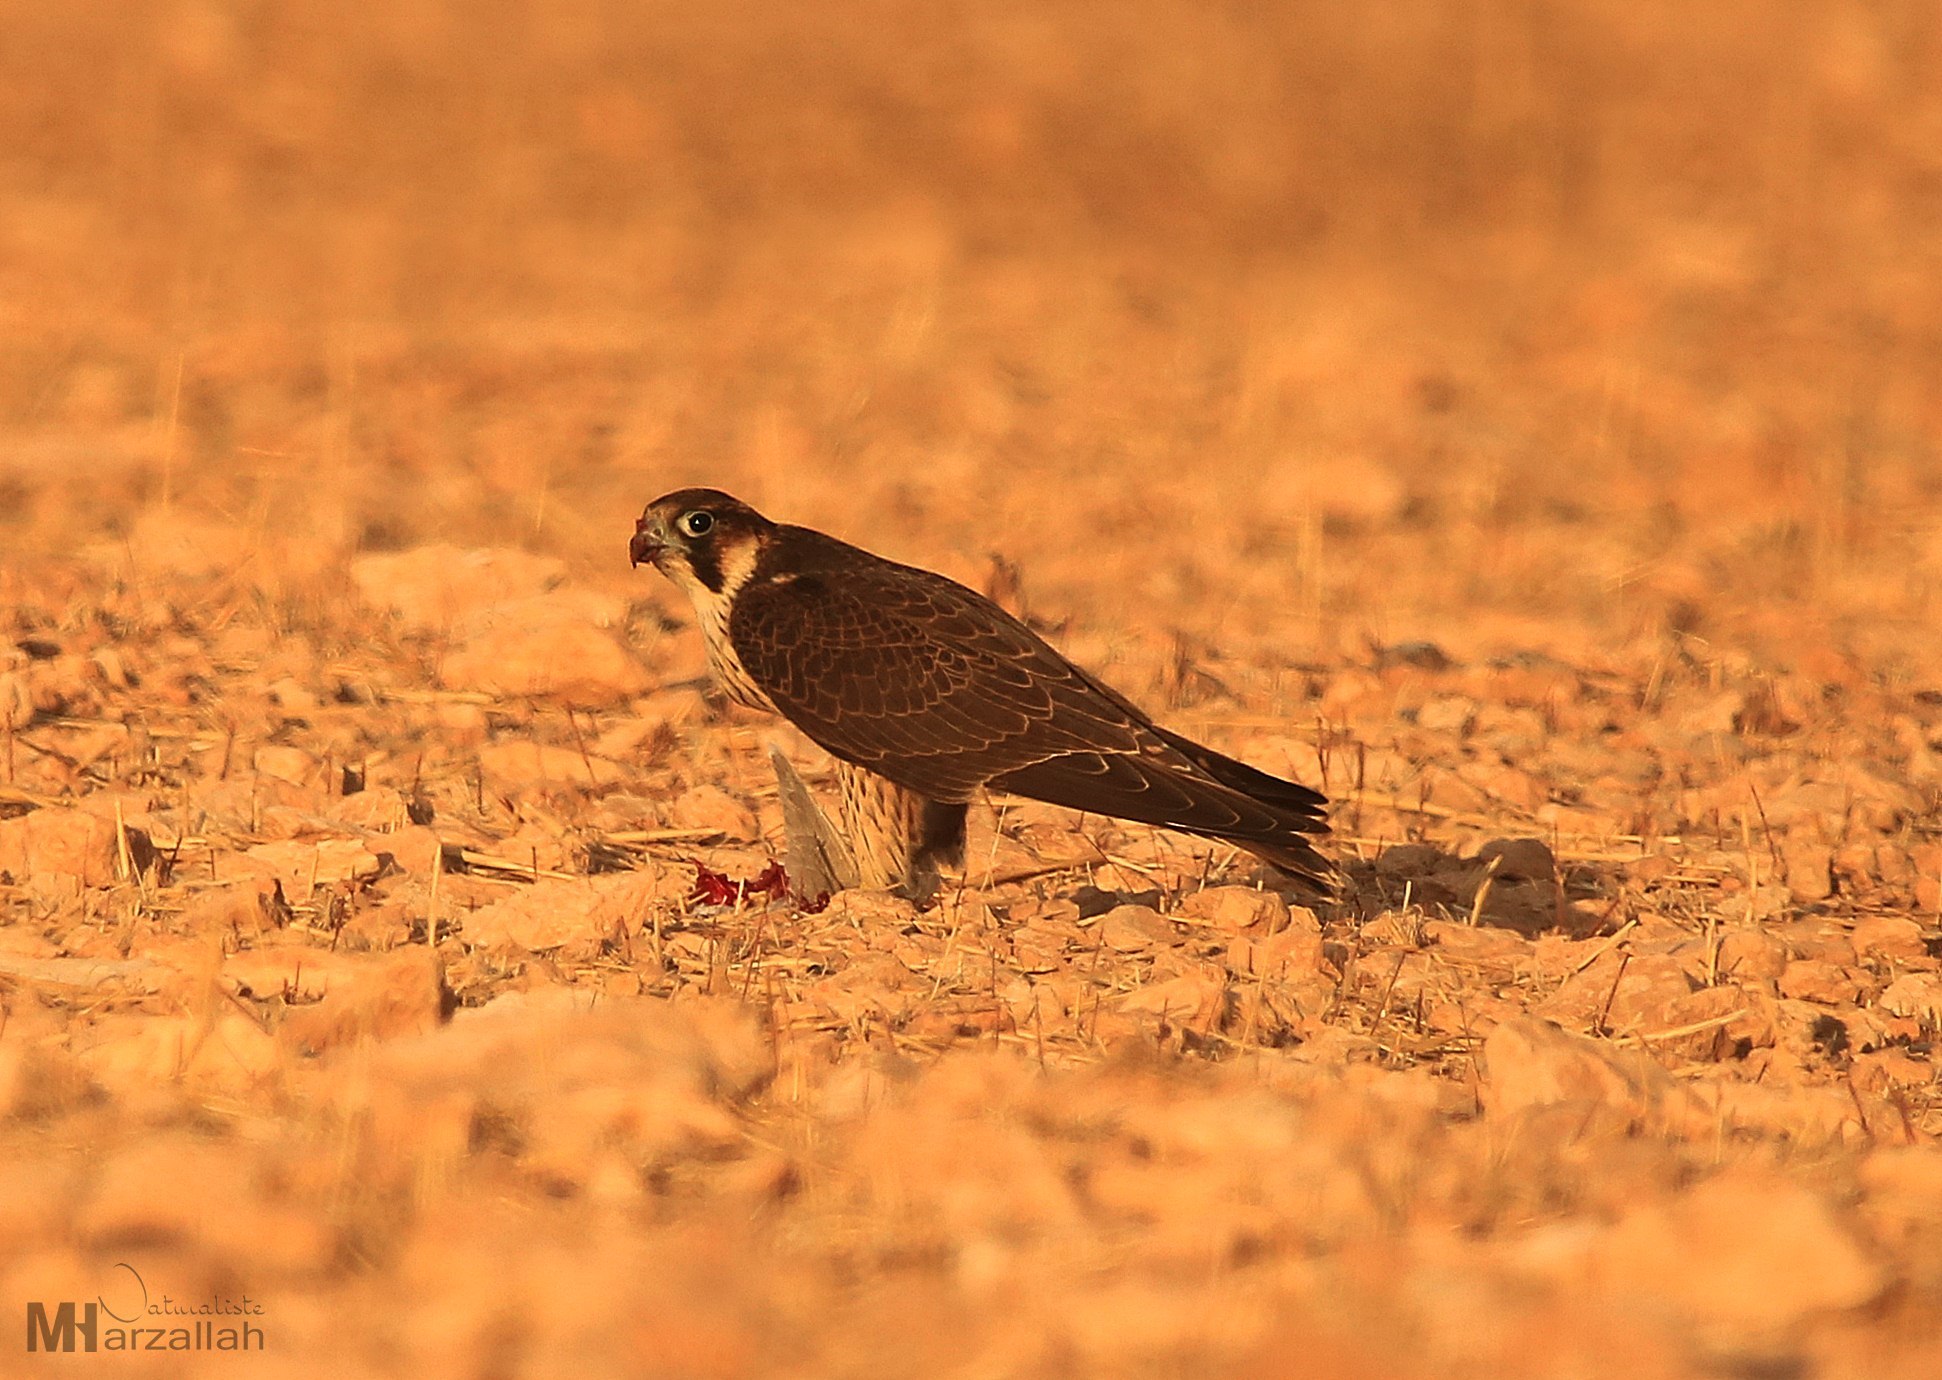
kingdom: Animalia
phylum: Chordata
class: Aves
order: Falconiformes
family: Falconidae
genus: Falco
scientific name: Falco peregrinus
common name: Peregrine falcon
